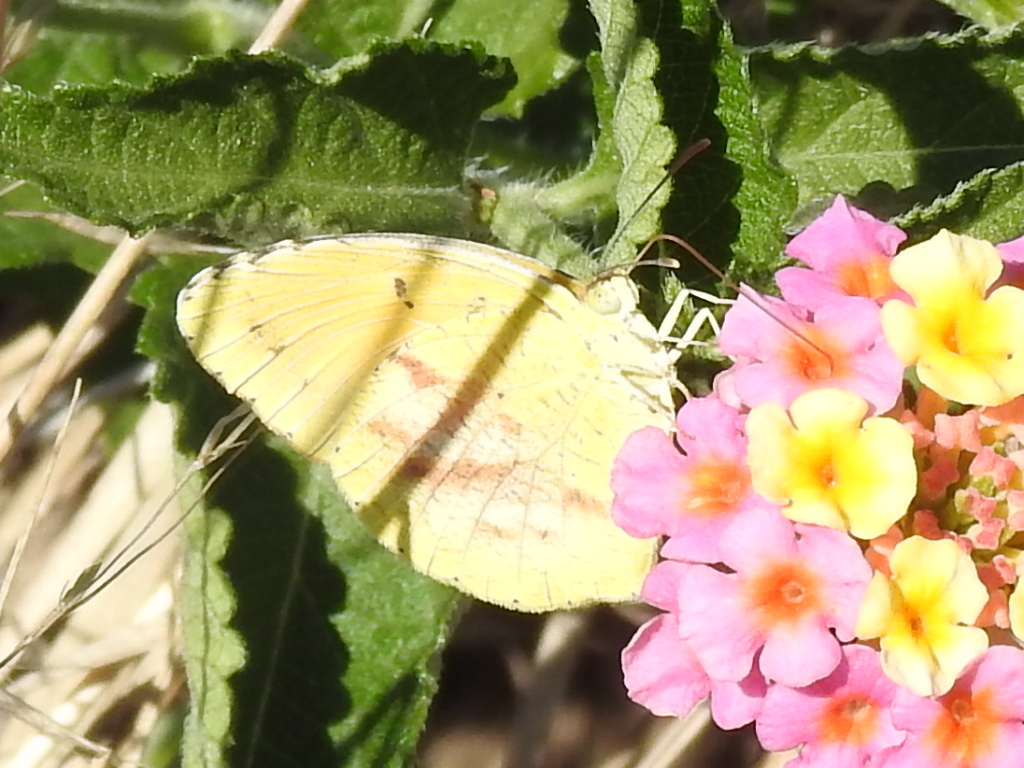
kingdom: Animalia
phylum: Arthropoda
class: Insecta
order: Lepidoptera
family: Pieridae
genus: Abaeis
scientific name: Abaeis nicippe
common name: Sleepy orange
